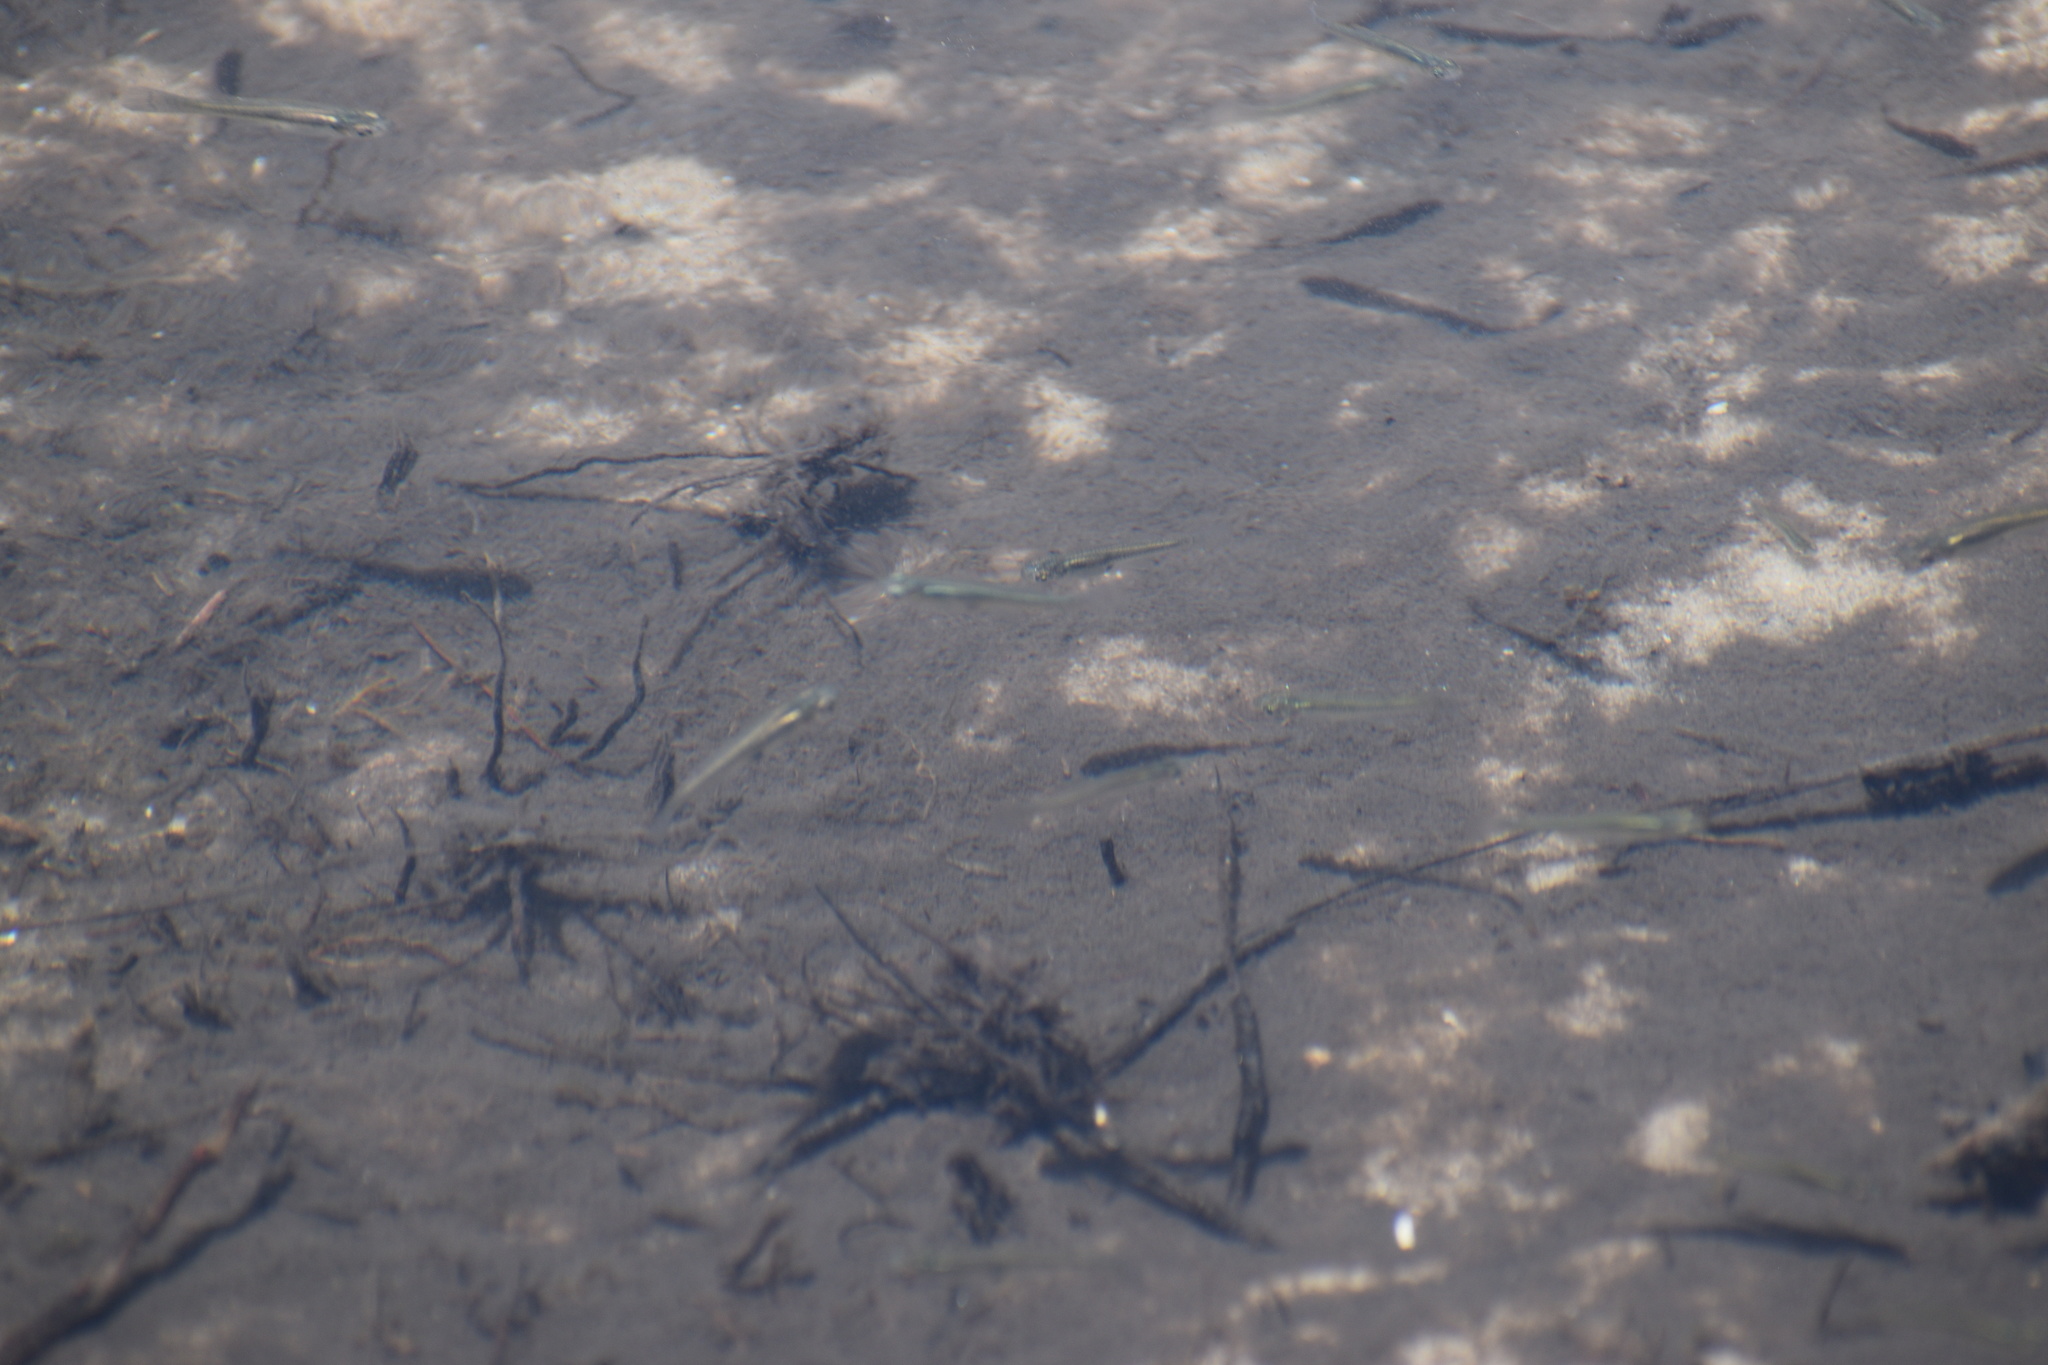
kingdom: Animalia
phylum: Chordata
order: Cyprinodontiformes
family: Poeciliidae
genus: Gambusia
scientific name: Gambusia holbrooki
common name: Eastern mosquitofish
